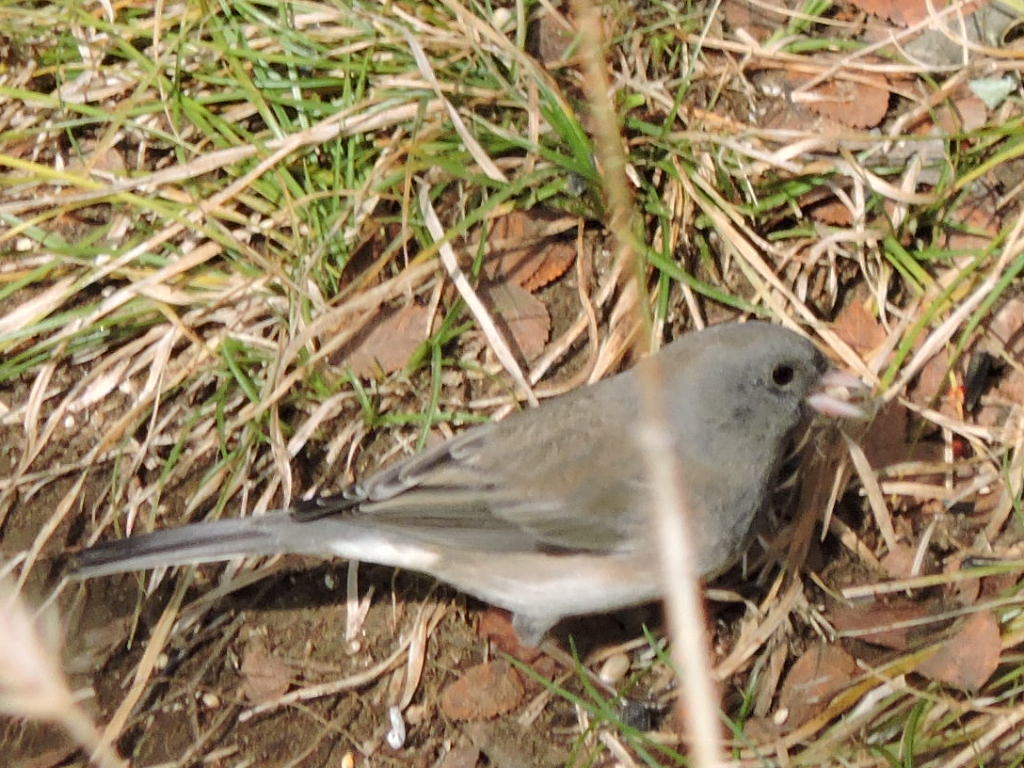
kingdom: Animalia
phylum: Chordata
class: Aves
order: Passeriformes
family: Passerellidae
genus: Junco
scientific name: Junco hyemalis
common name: Dark-eyed junco
